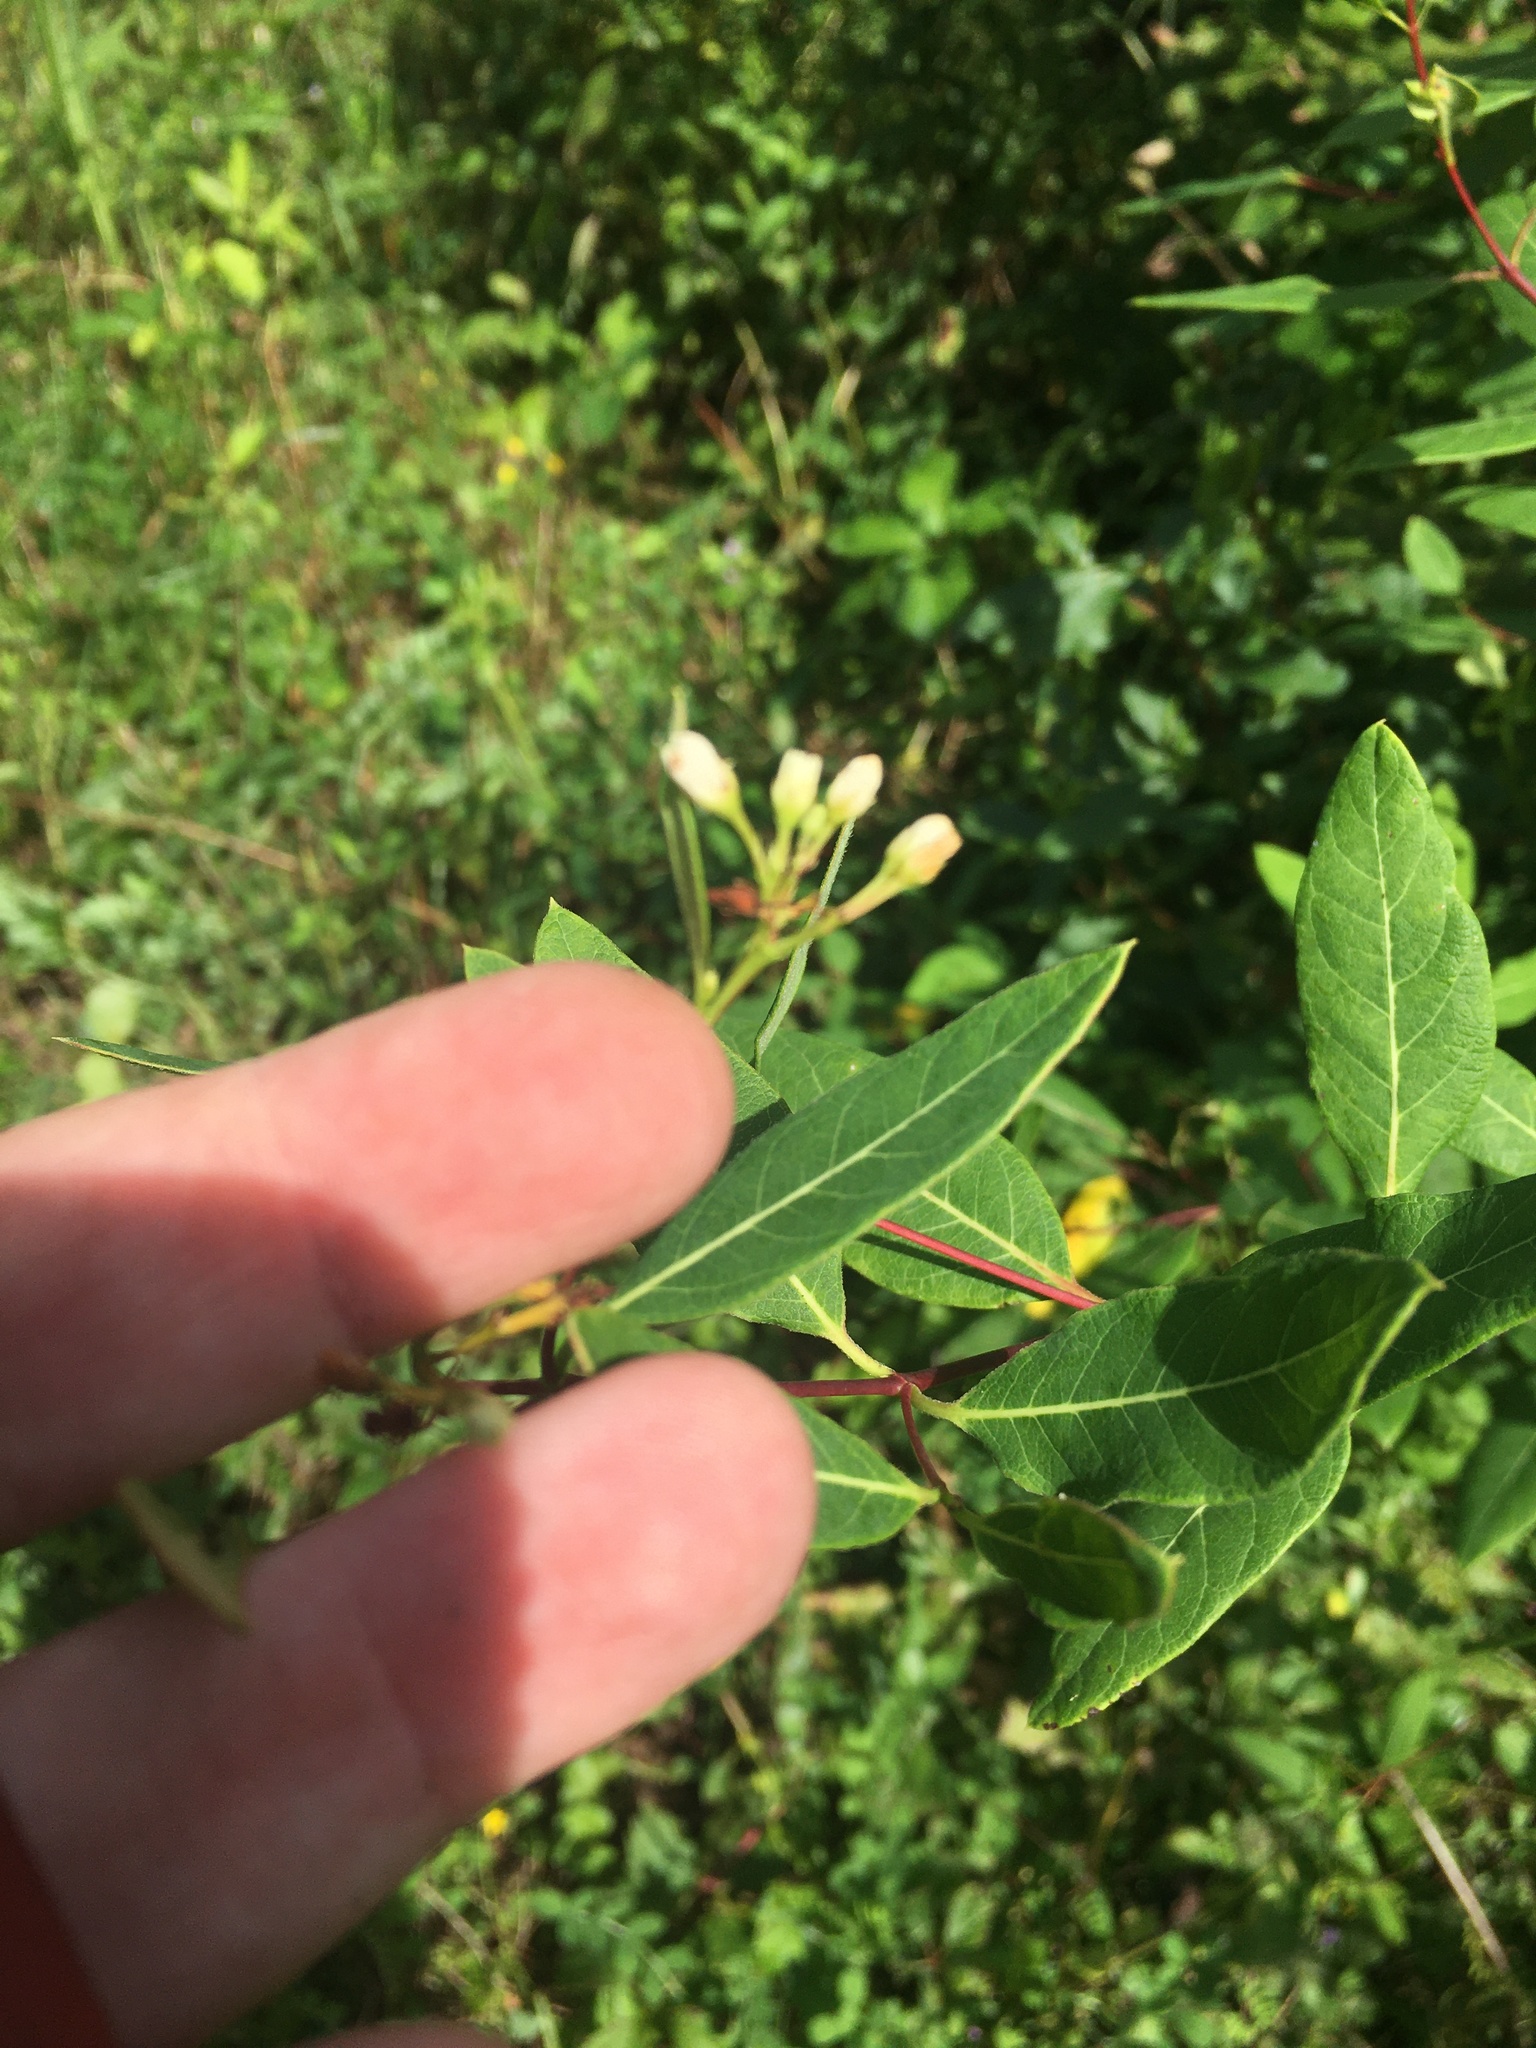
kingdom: Plantae
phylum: Tracheophyta
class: Magnoliopsida
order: Gentianales
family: Apocynaceae
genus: Apocynum
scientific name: Apocynum cannabinum
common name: Hemp dogbane
